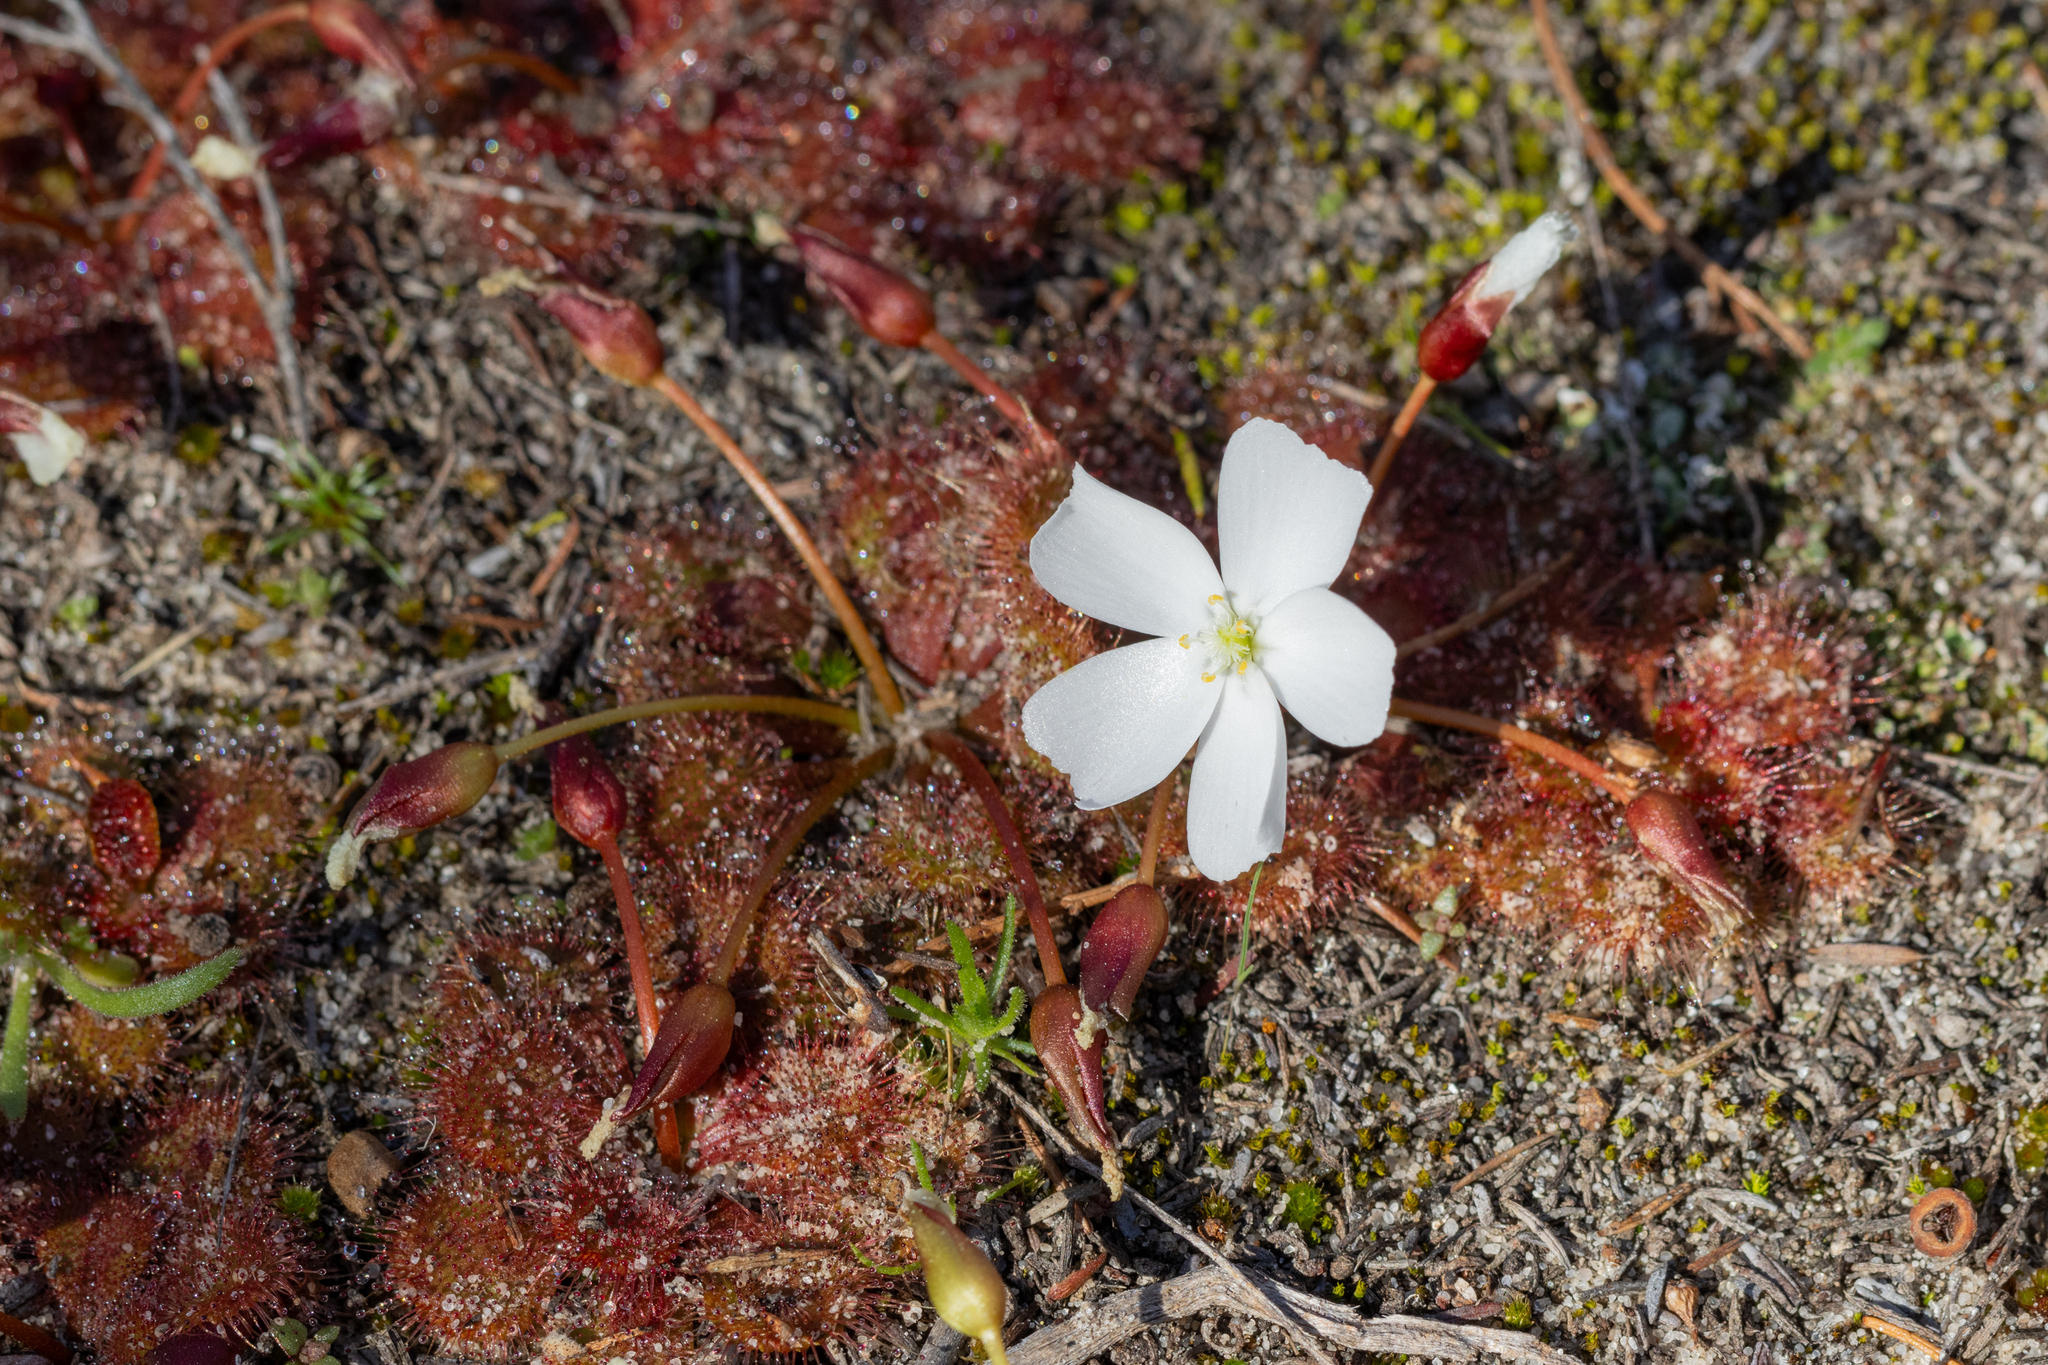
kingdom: Plantae
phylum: Tracheophyta
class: Magnoliopsida
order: Caryophyllales
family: Droseraceae
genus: Drosera
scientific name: Drosera aberrans
